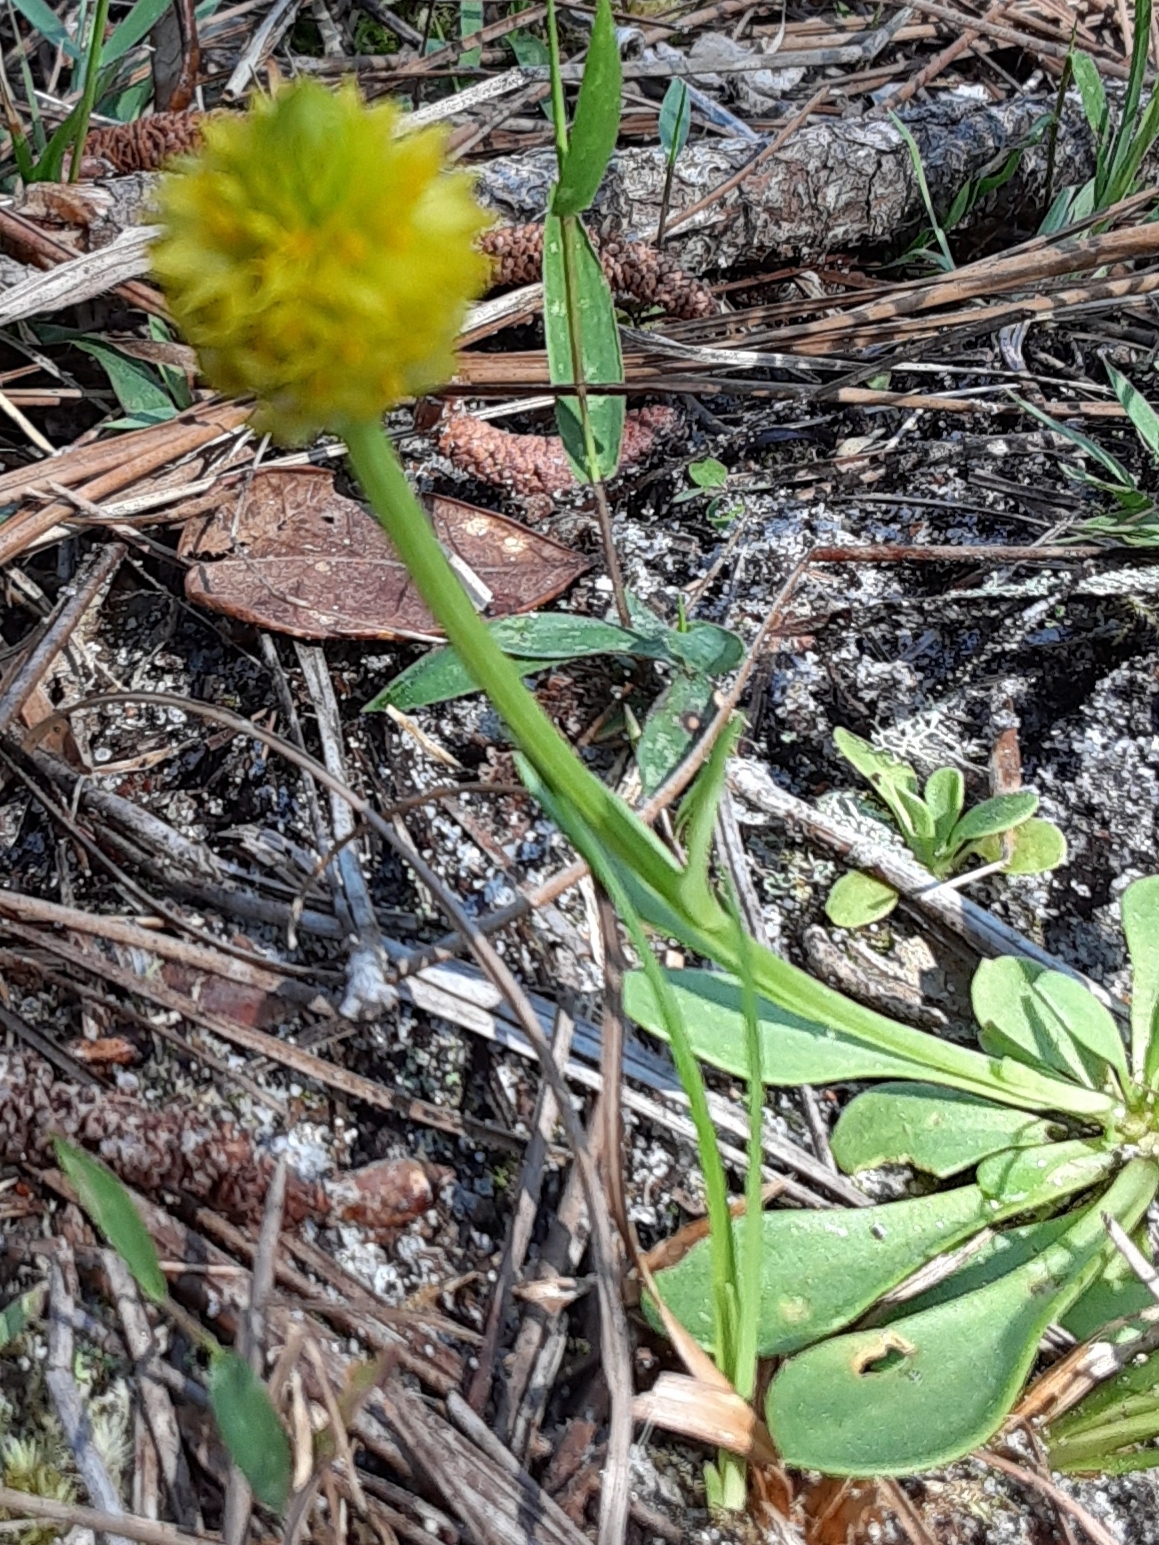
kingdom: Plantae
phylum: Tracheophyta
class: Magnoliopsida
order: Fabales
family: Polygalaceae
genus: Polygala
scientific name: Polygala nana
